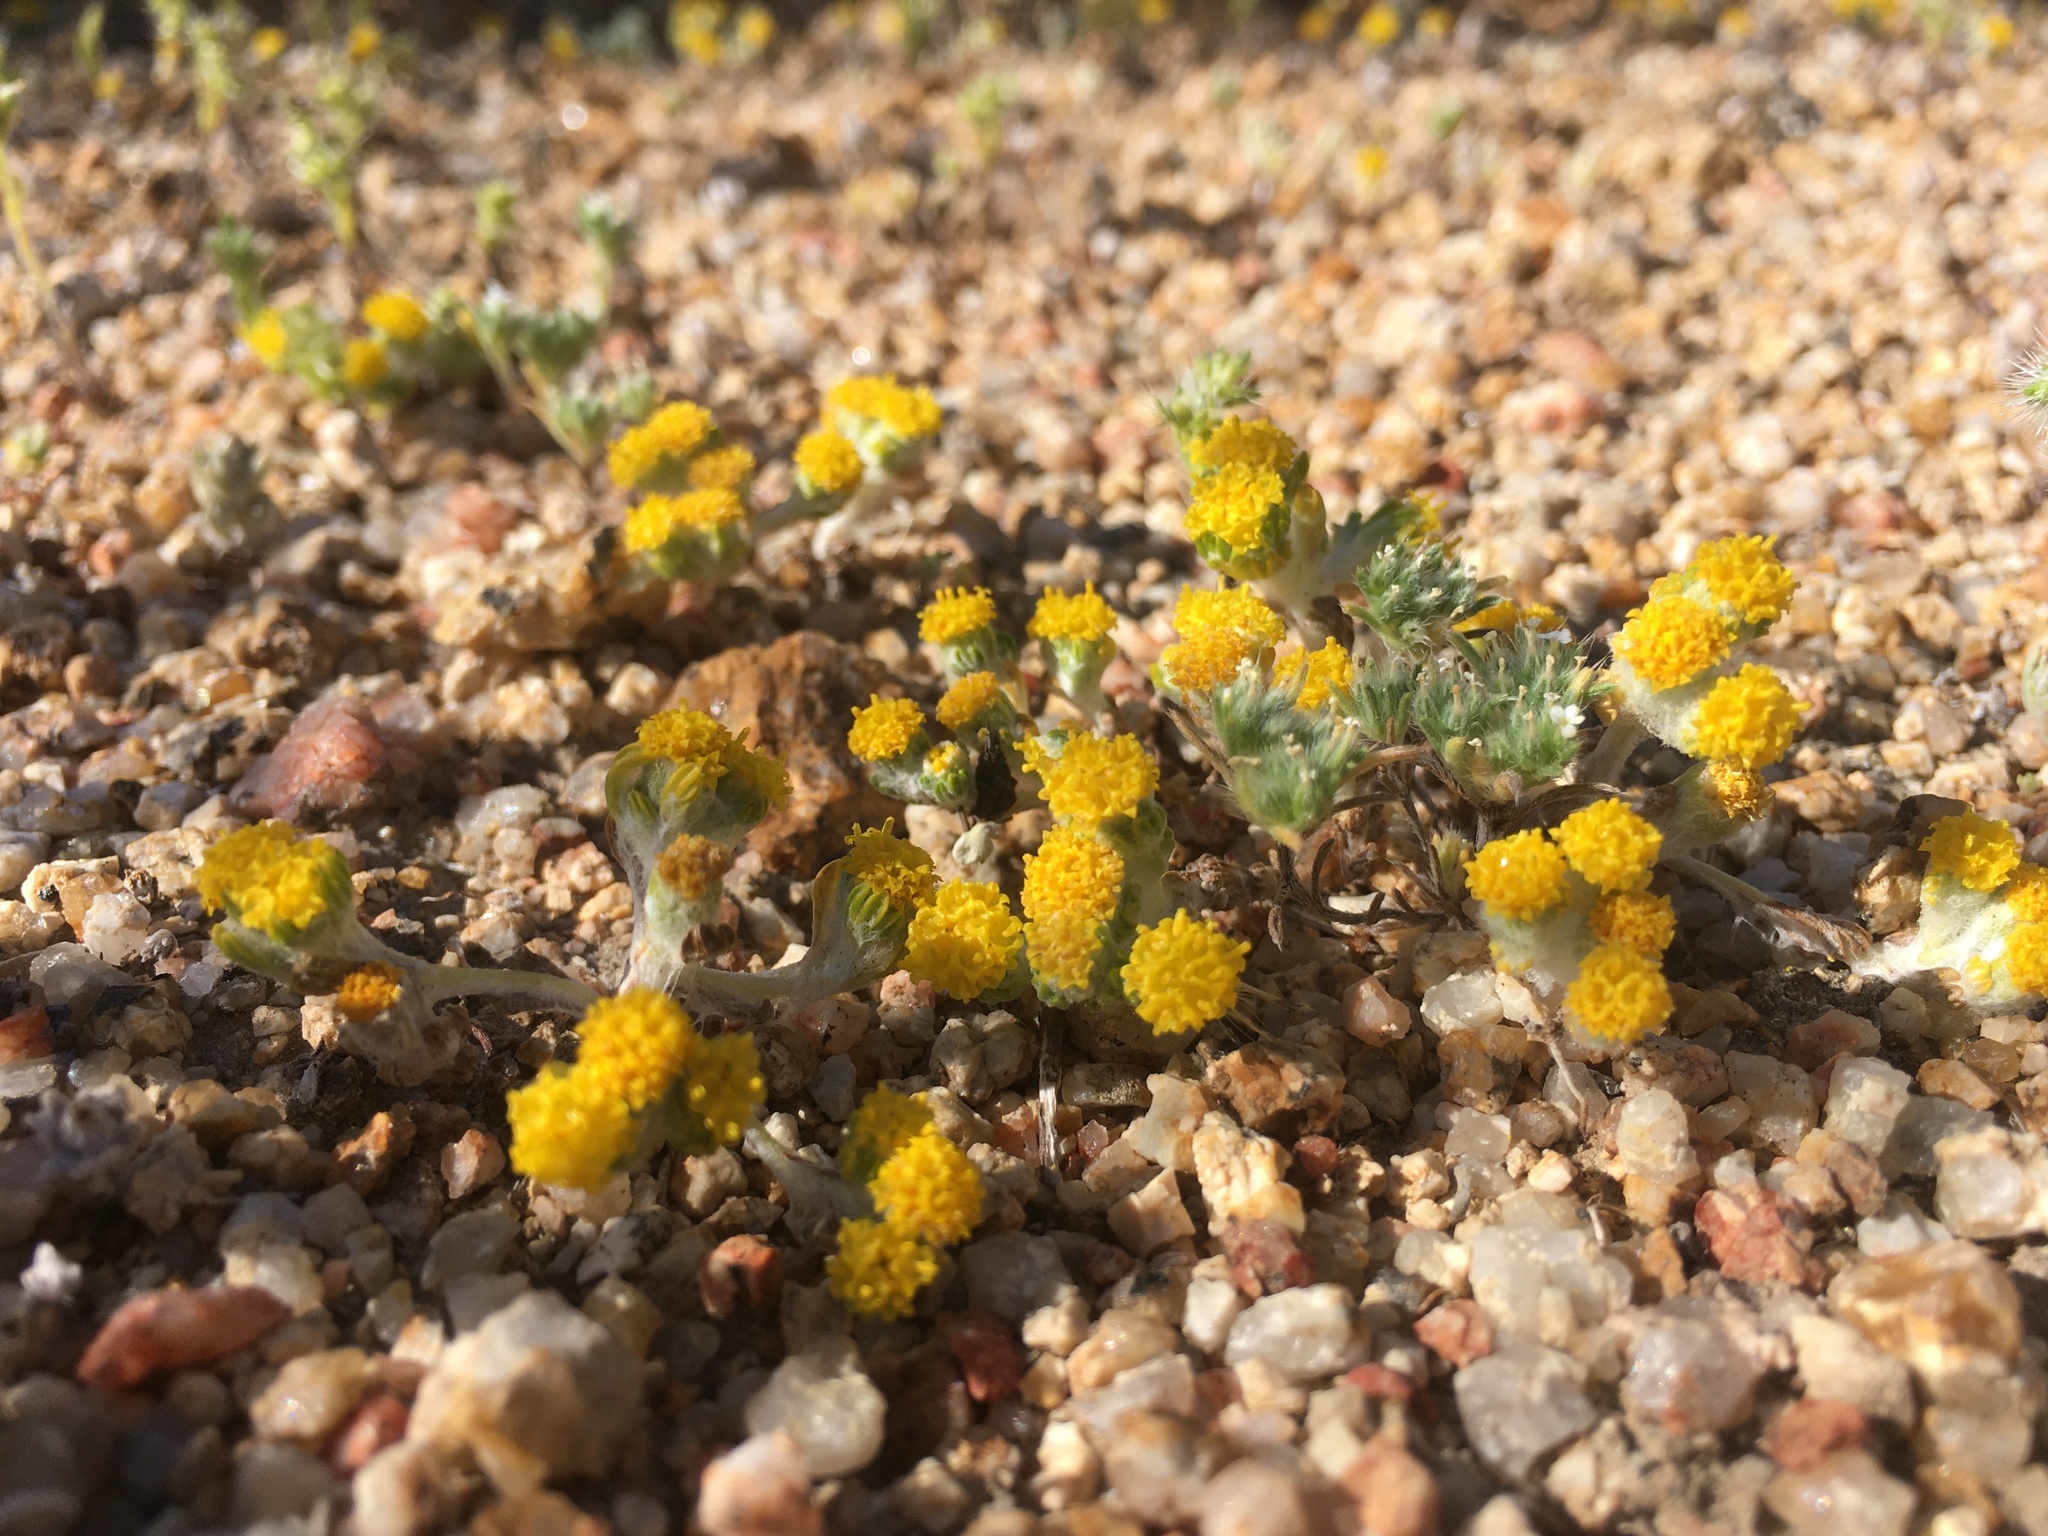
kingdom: Plantae
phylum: Tracheophyta
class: Magnoliopsida
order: Asterales
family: Asteraceae
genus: Eriophyllum
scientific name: Eriophyllum pringlei
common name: Pringle's woolly-sunflower
